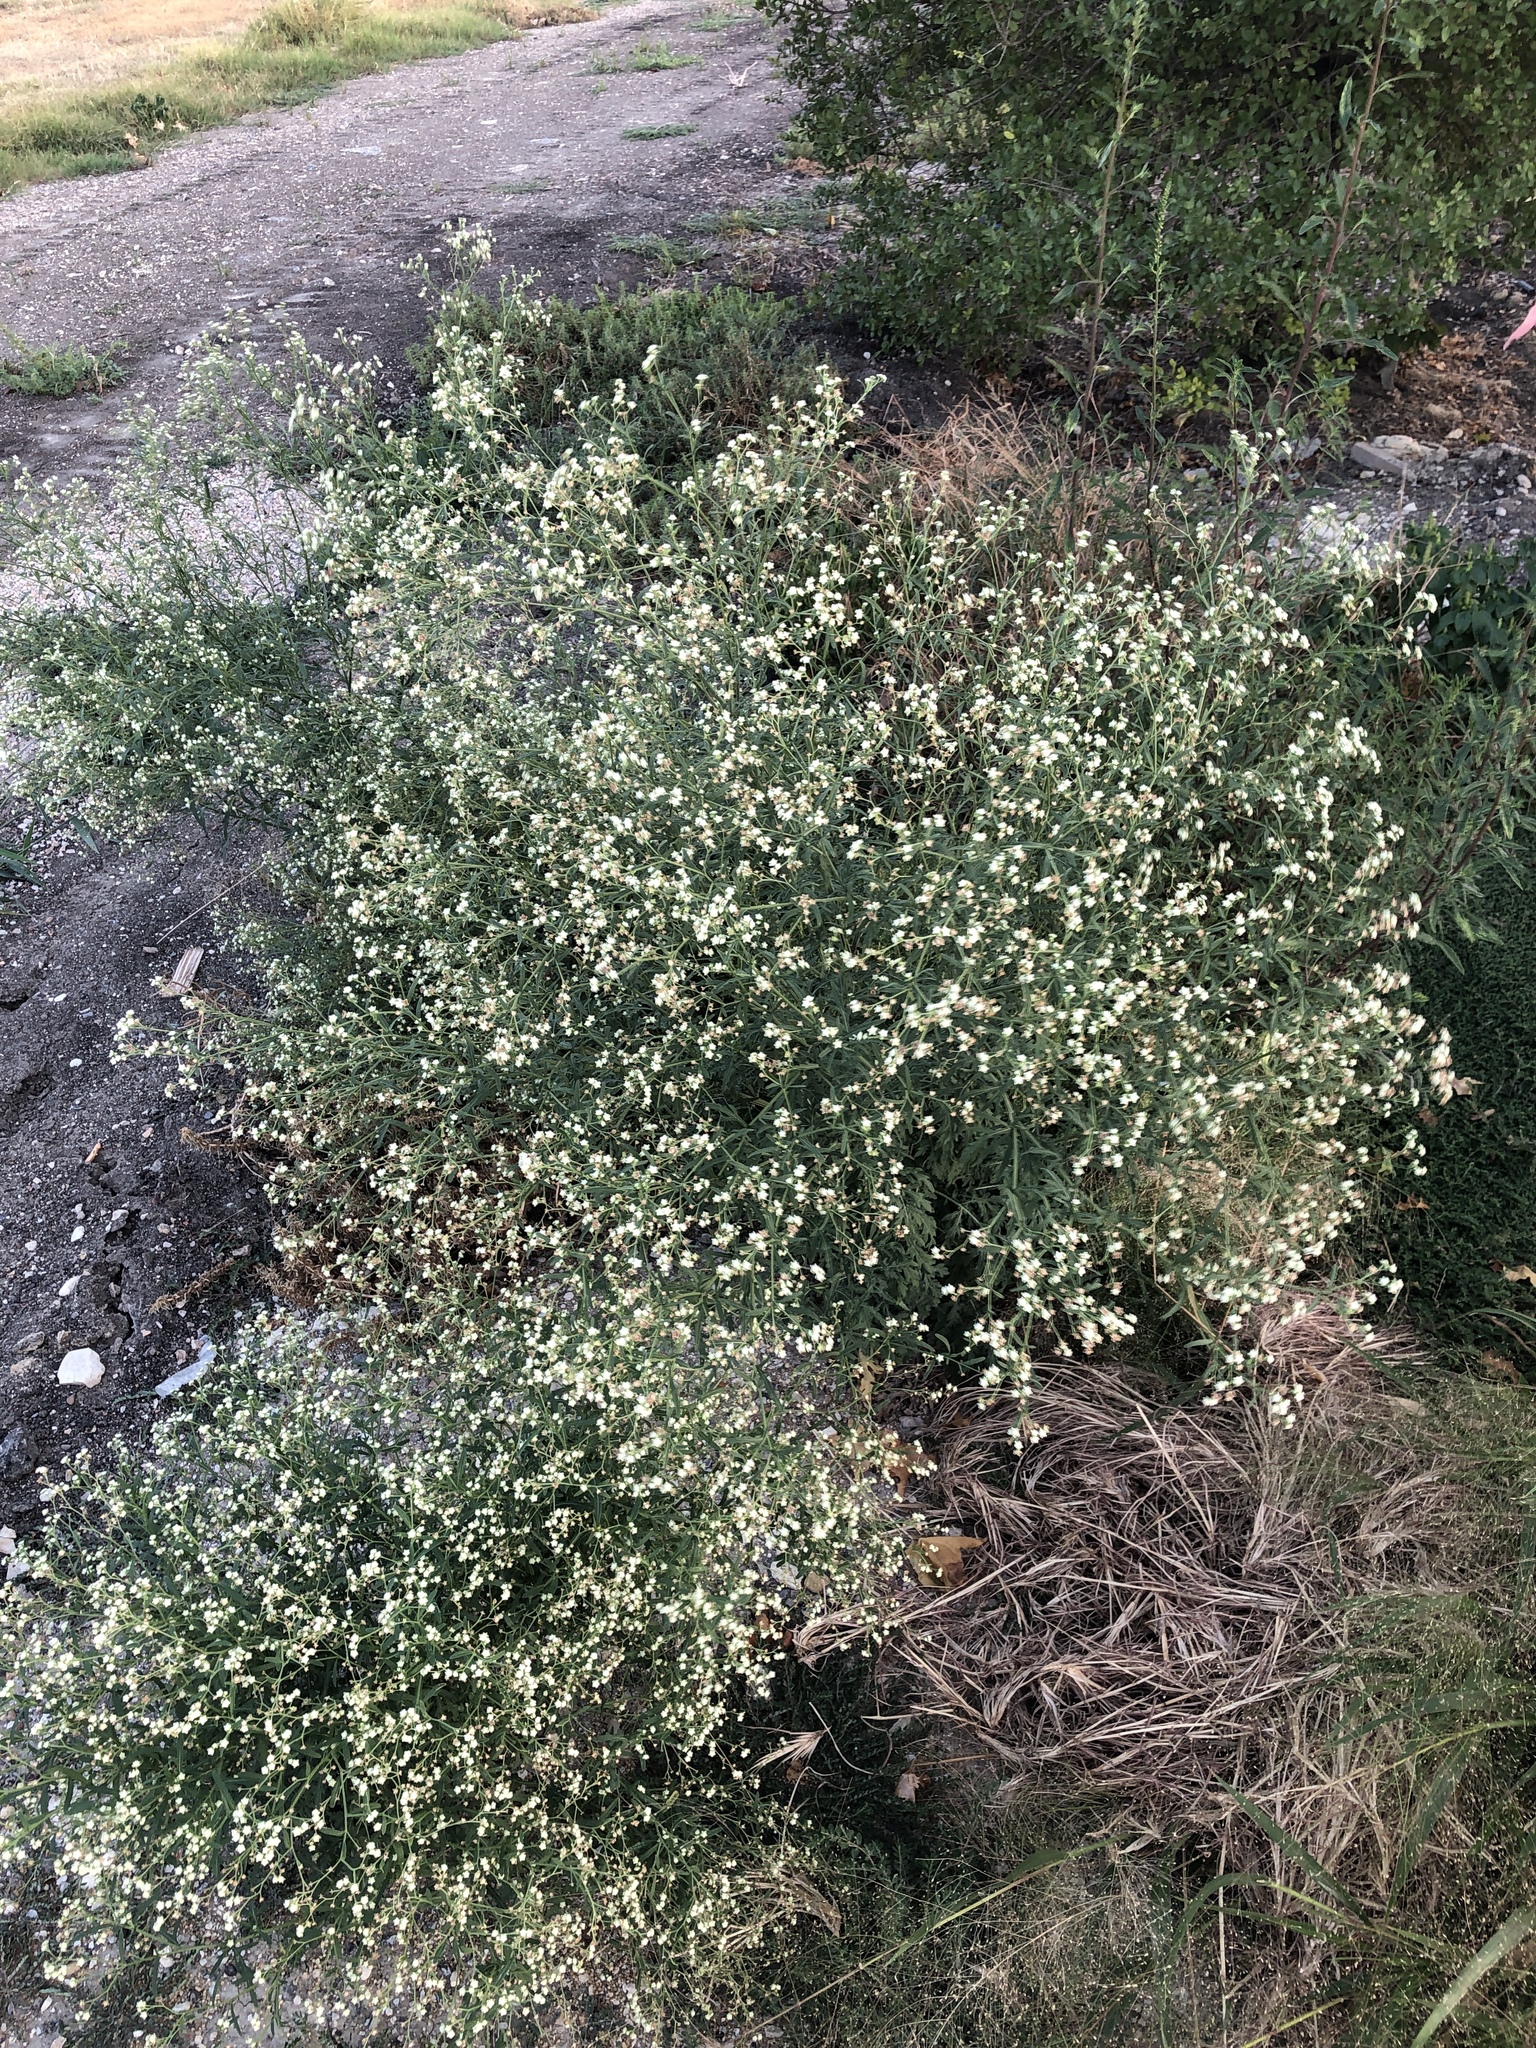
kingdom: Plantae
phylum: Tracheophyta
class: Magnoliopsida
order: Asterales
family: Asteraceae
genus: Parthenium
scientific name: Parthenium hysterophorus
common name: Santa maria feverfew
